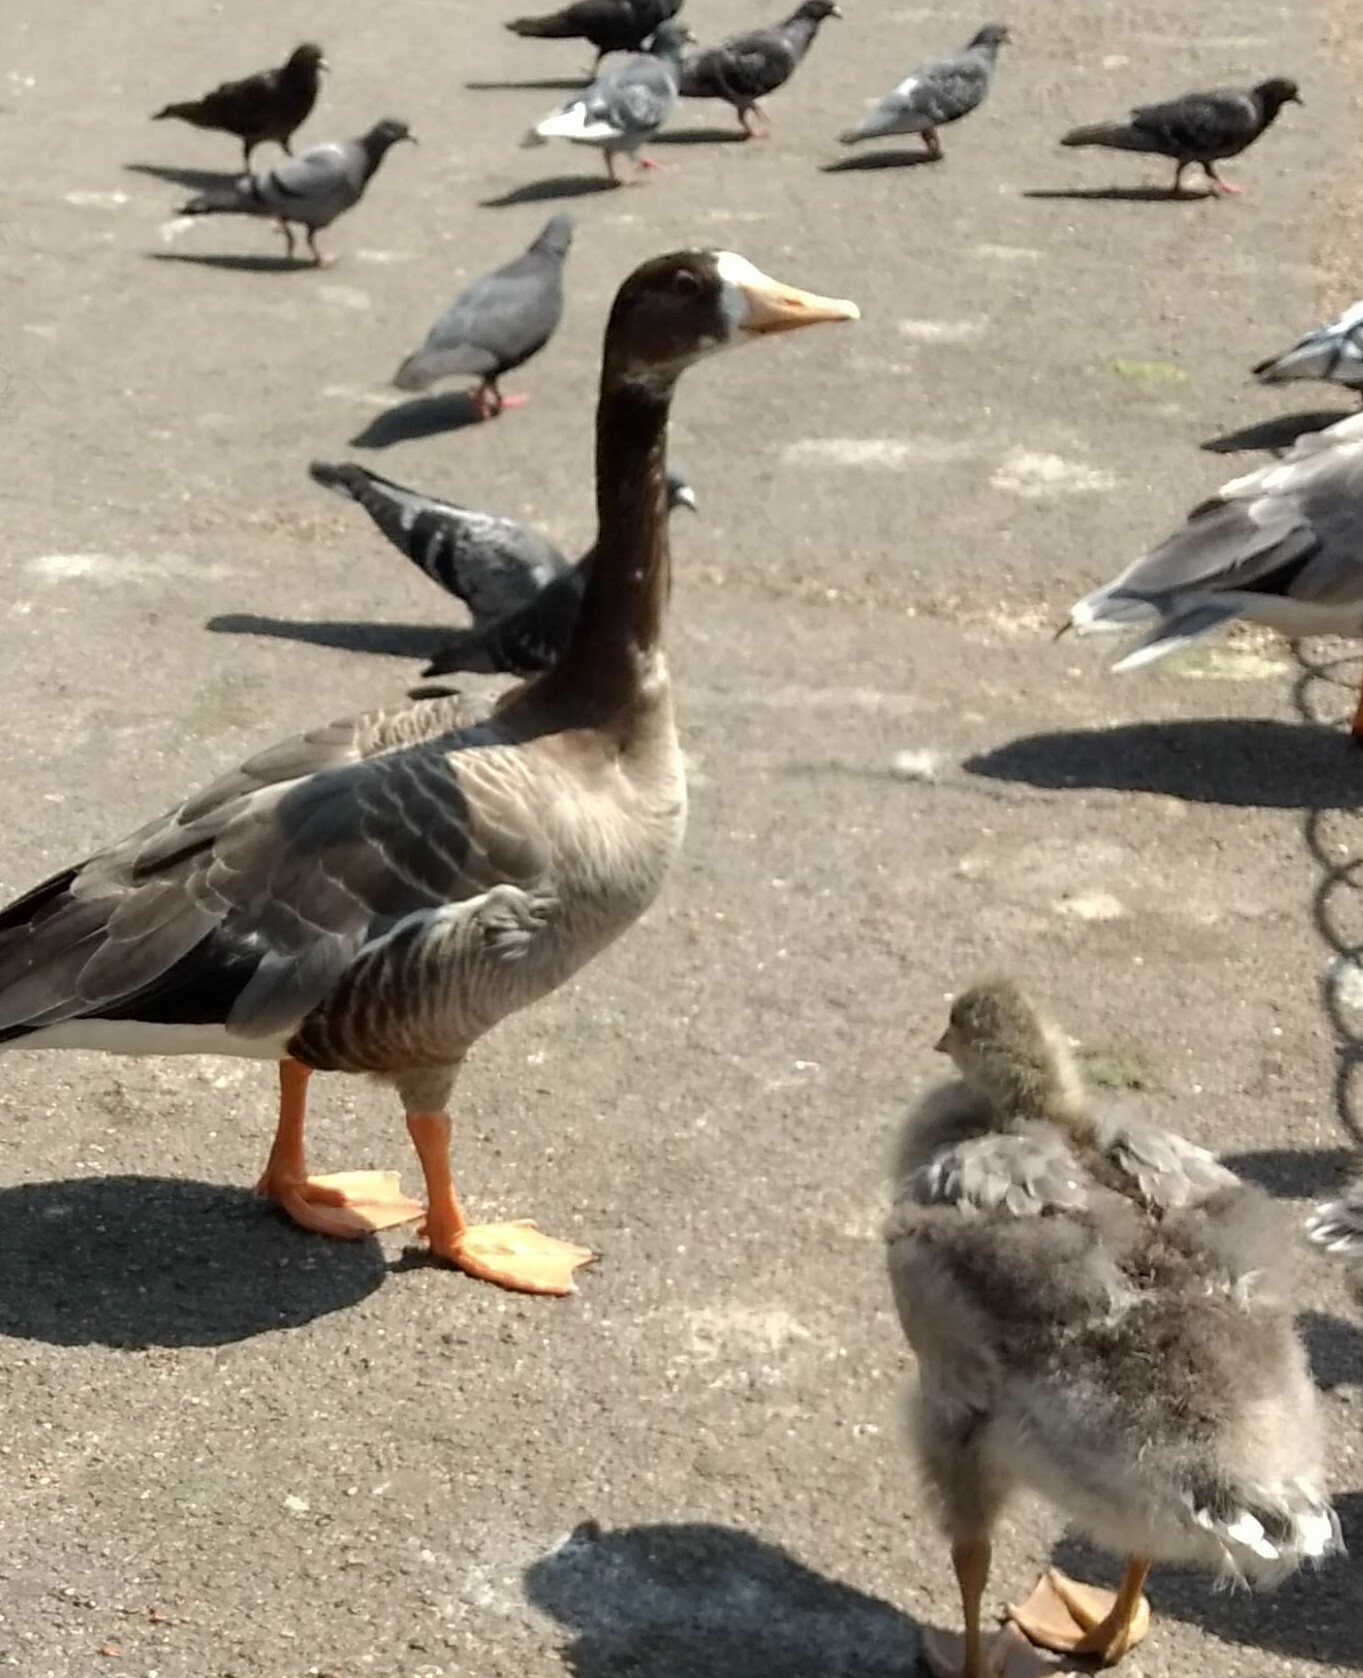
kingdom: Animalia
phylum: Chordata
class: Aves
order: Anseriformes
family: Anatidae
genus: Anser
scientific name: Anser
